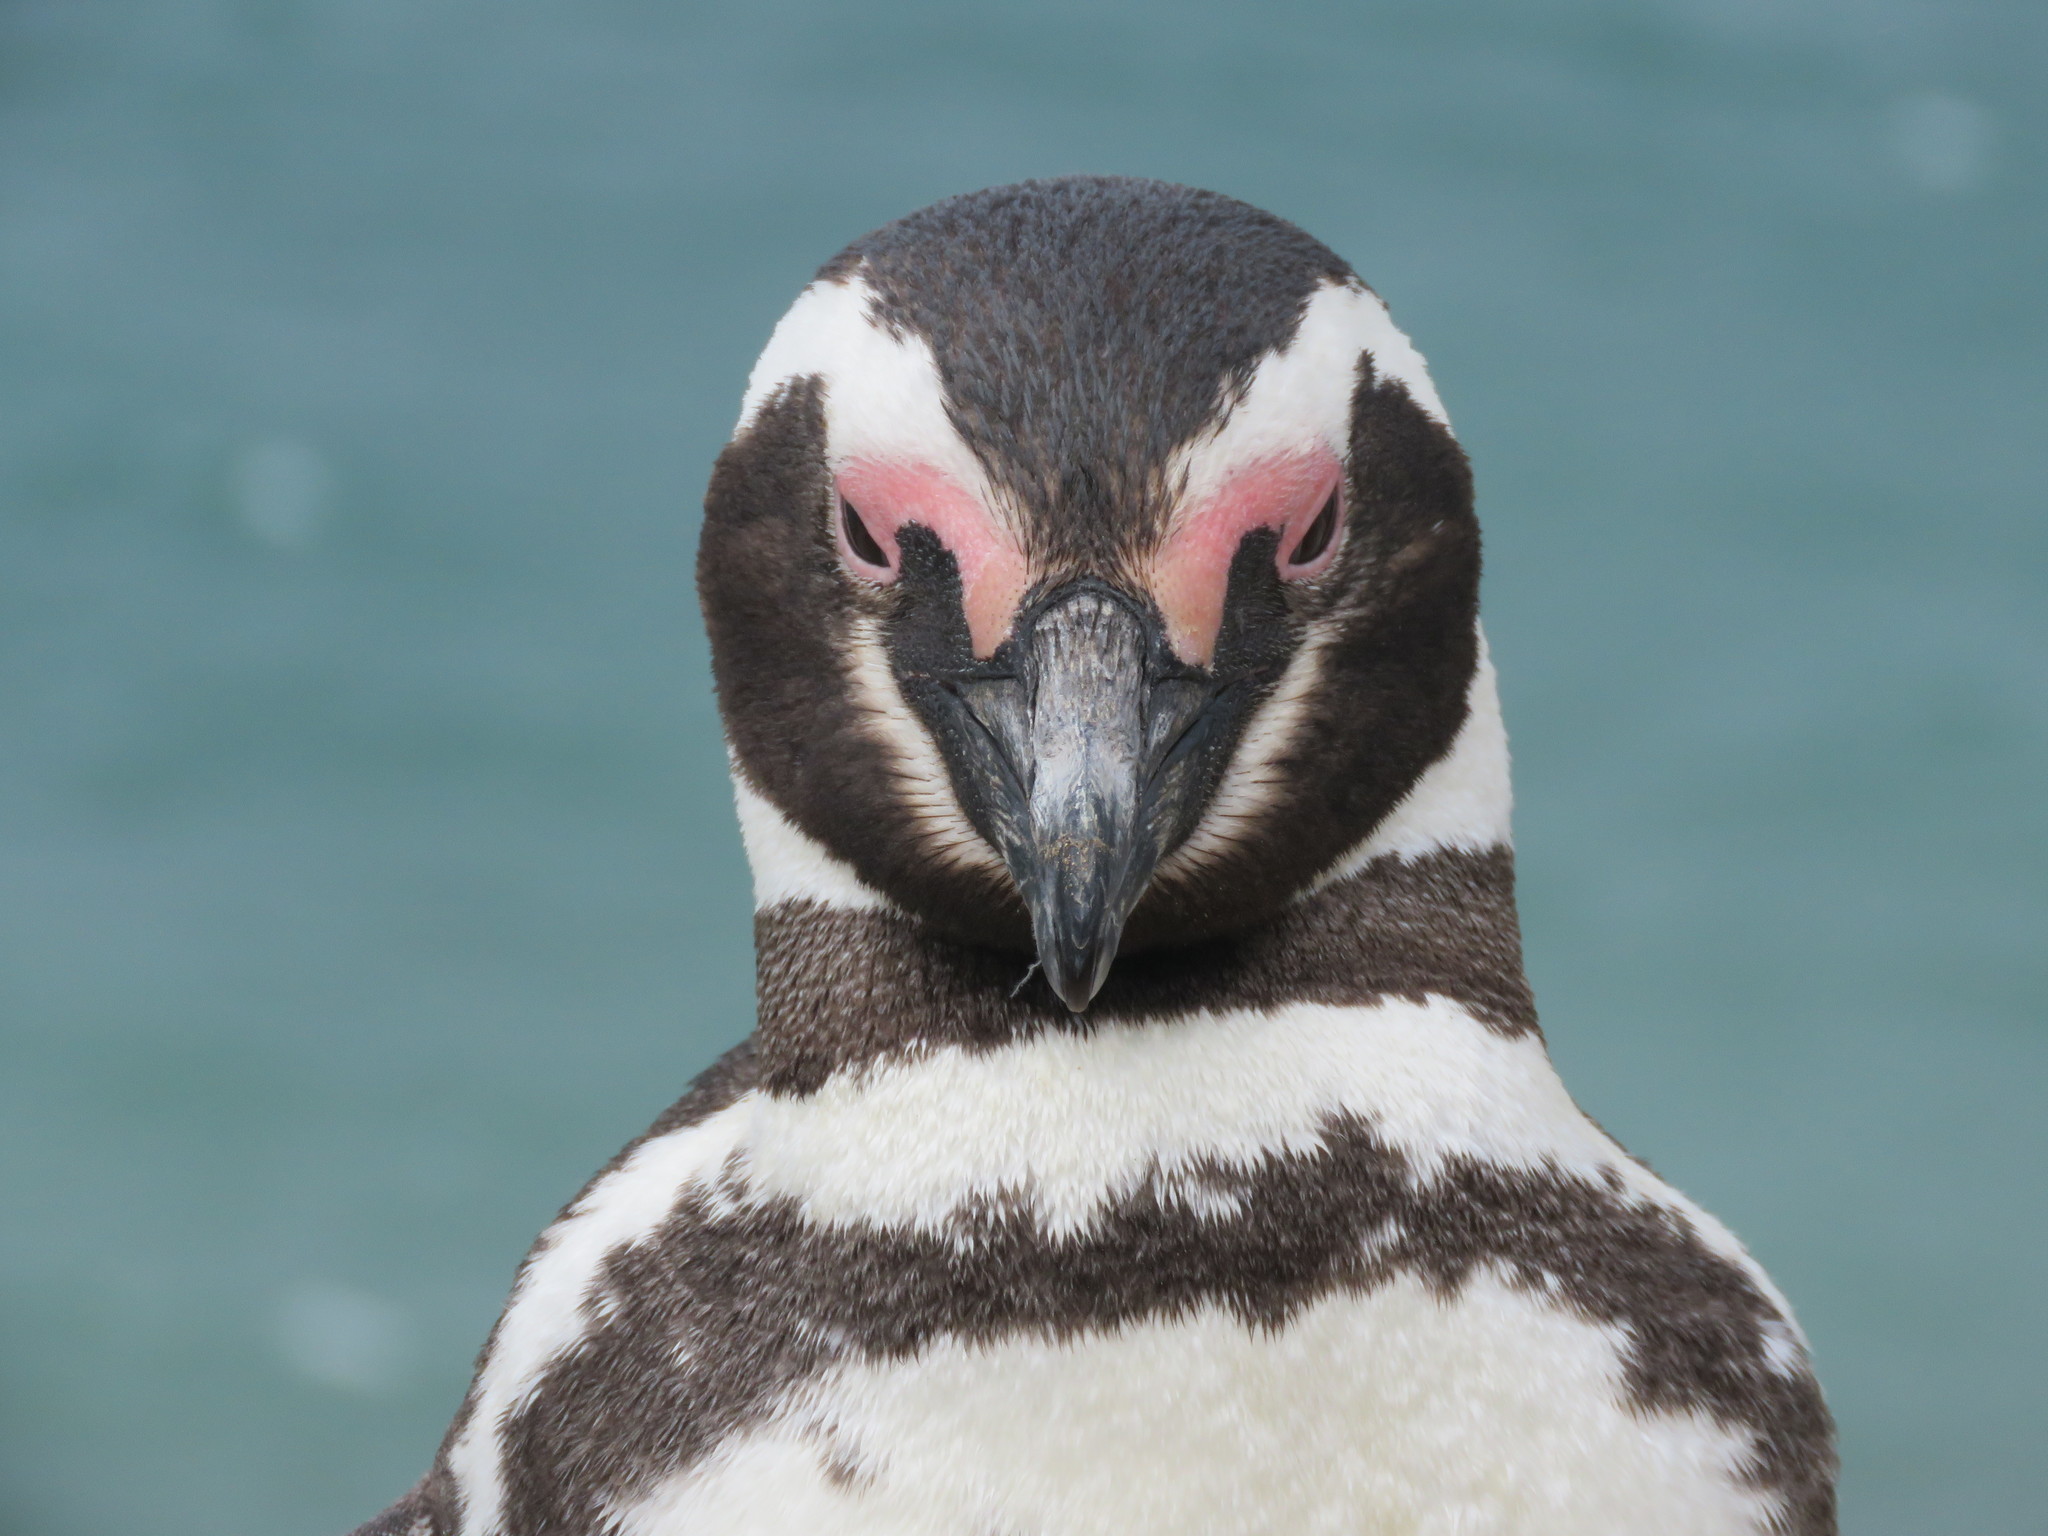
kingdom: Animalia
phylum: Chordata
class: Aves
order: Sphenisciformes
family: Spheniscidae
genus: Spheniscus
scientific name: Spheniscus magellanicus
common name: Magellanic penguin
